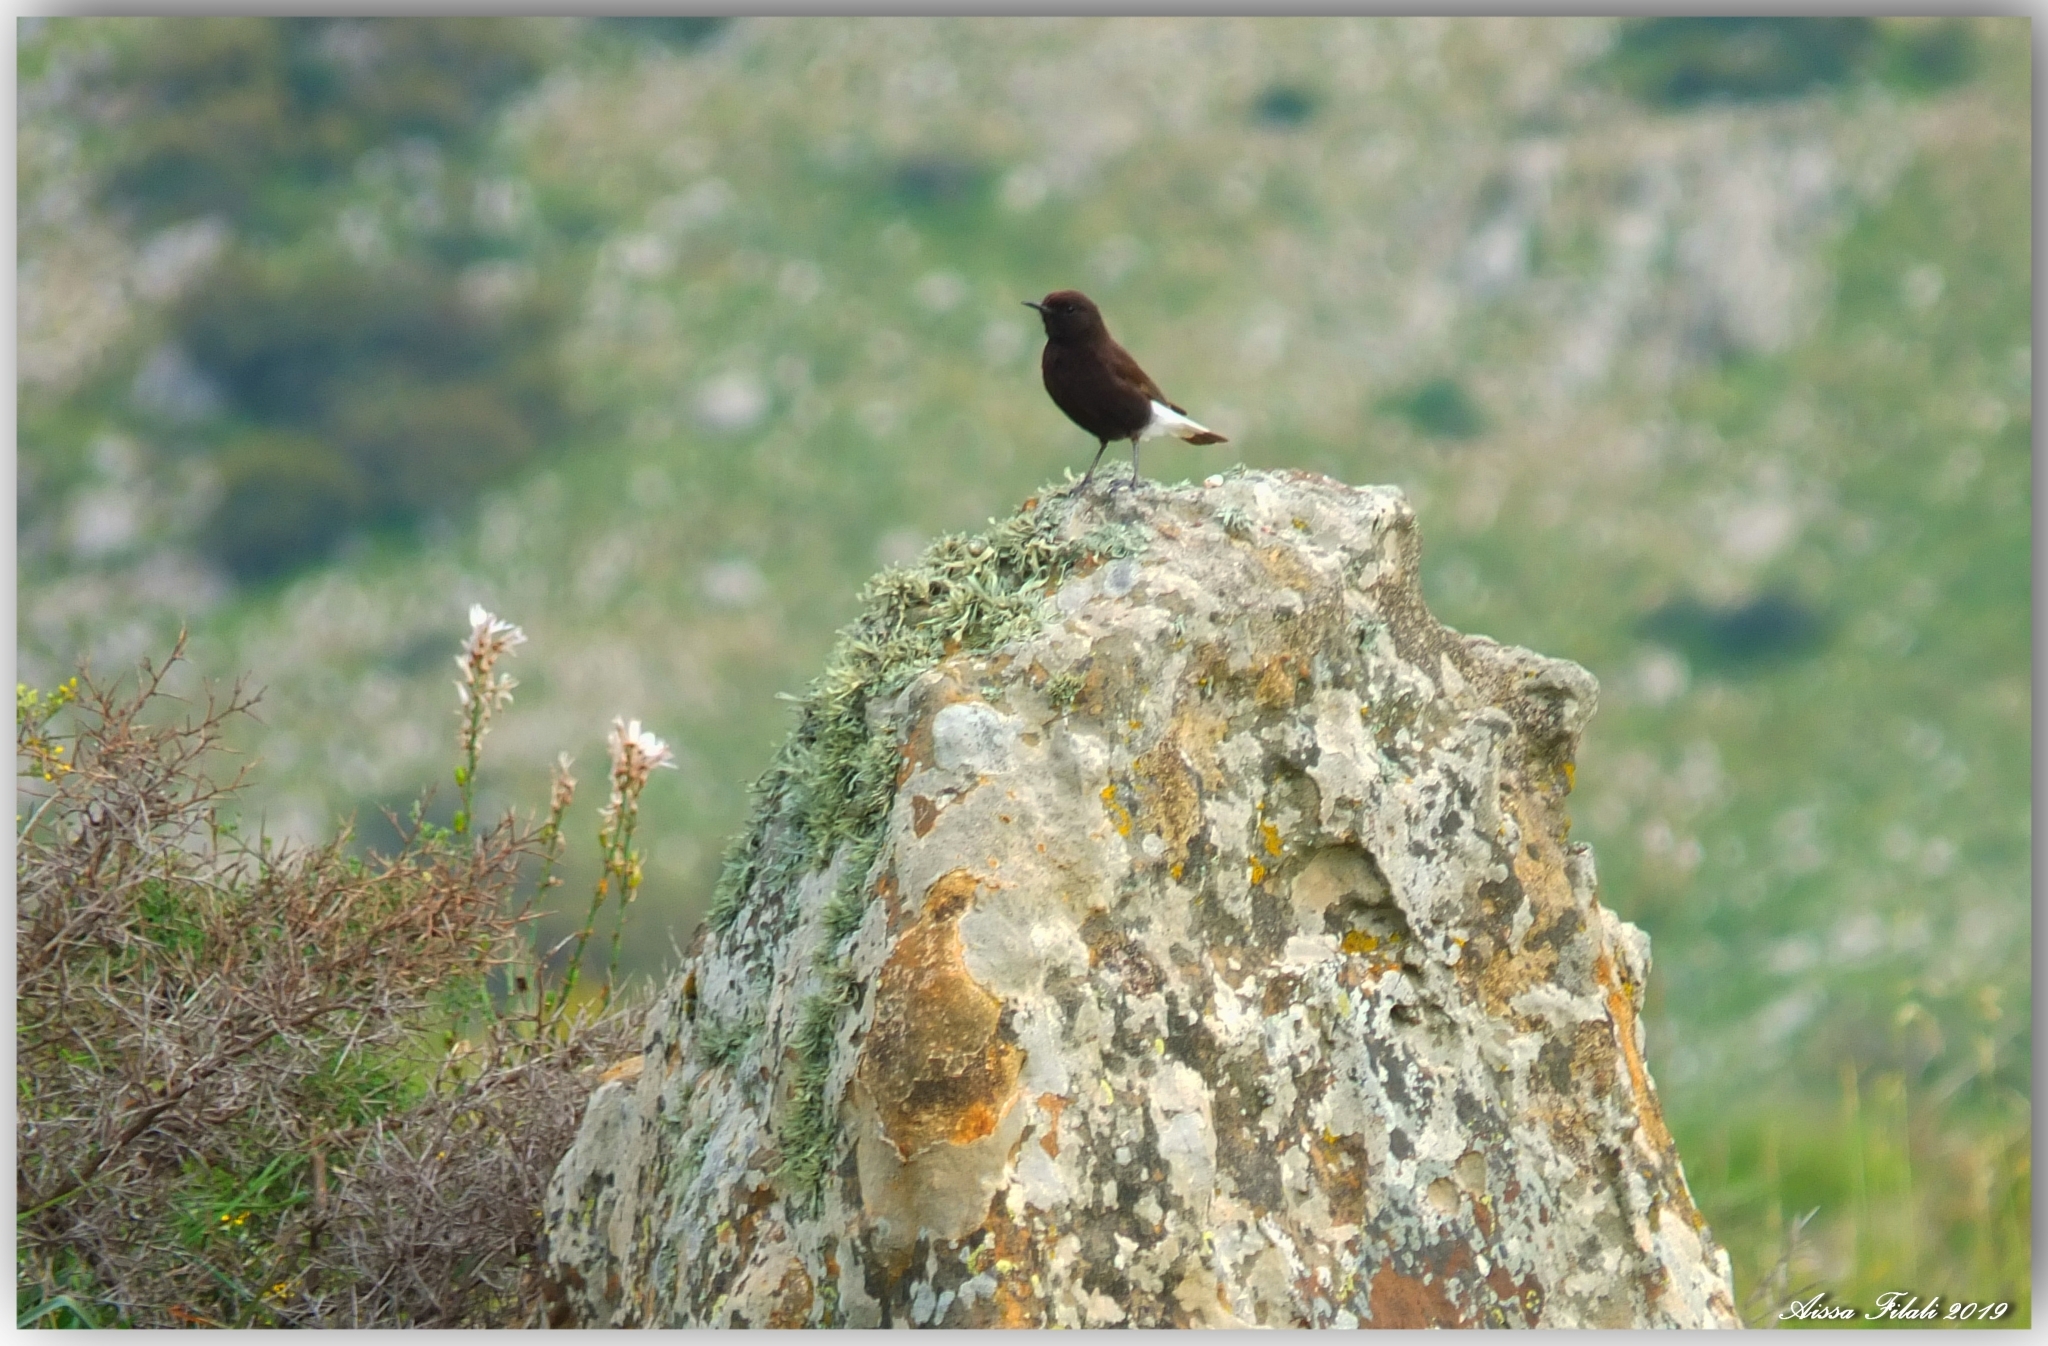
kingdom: Animalia
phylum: Chordata
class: Aves
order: Passeriformes
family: Muscicapidae
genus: Oenanthe
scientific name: Oenanthe leucura
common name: Black wheatear
